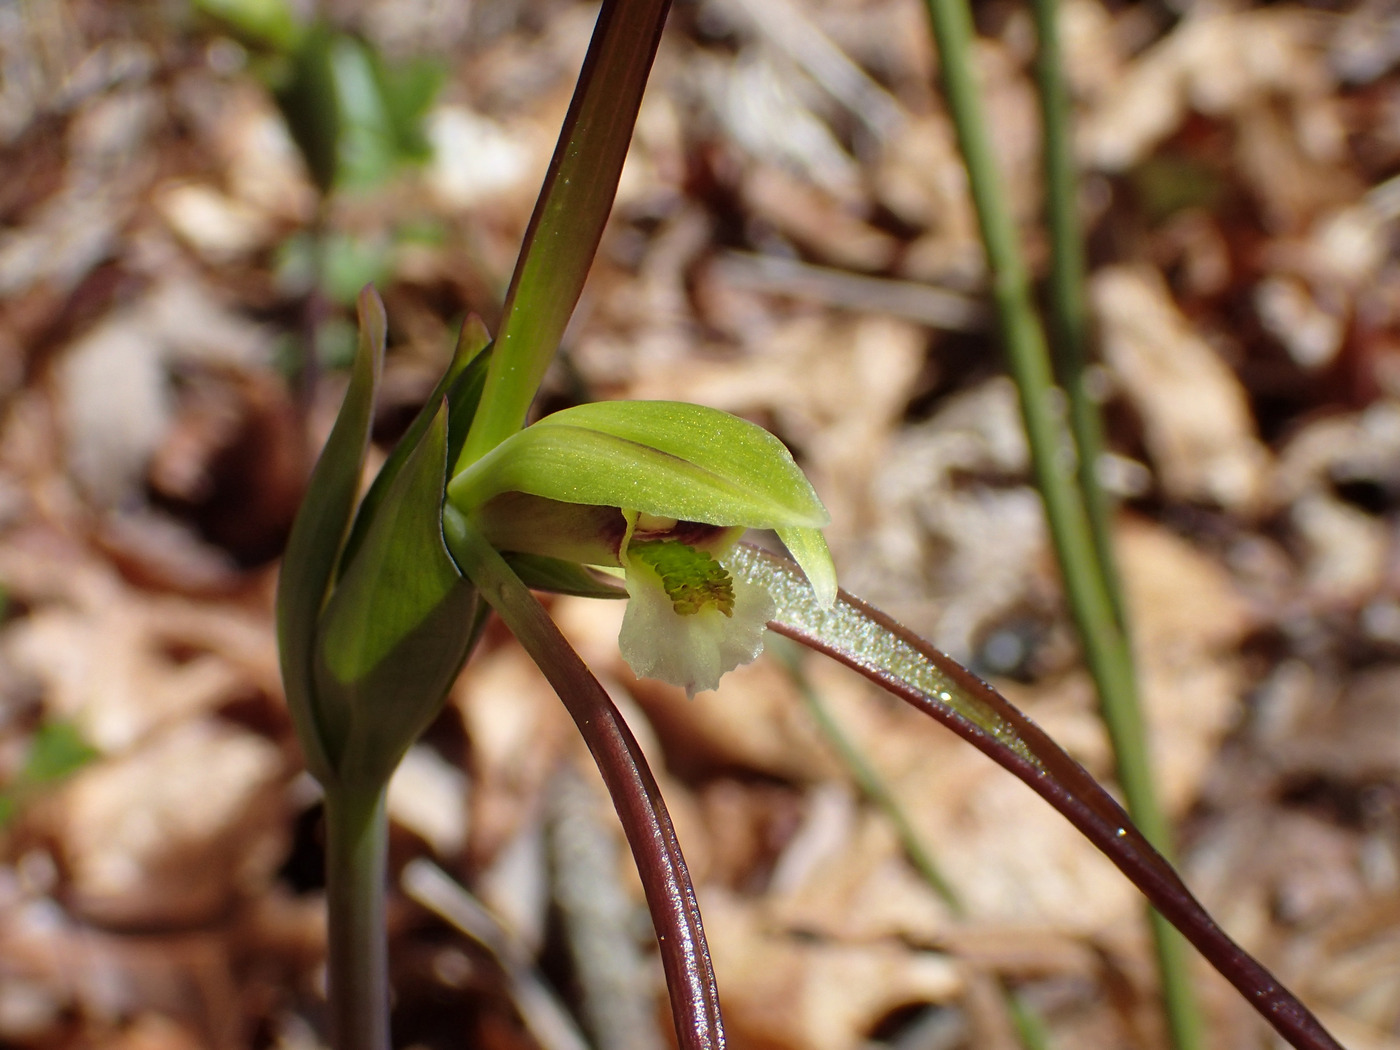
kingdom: Plantae
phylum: Tracheophyta
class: Liliopsida
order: Asparagales
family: Orchidaceae
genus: Isotria
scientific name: Isotria verticillata
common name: Large whorled pogonia
